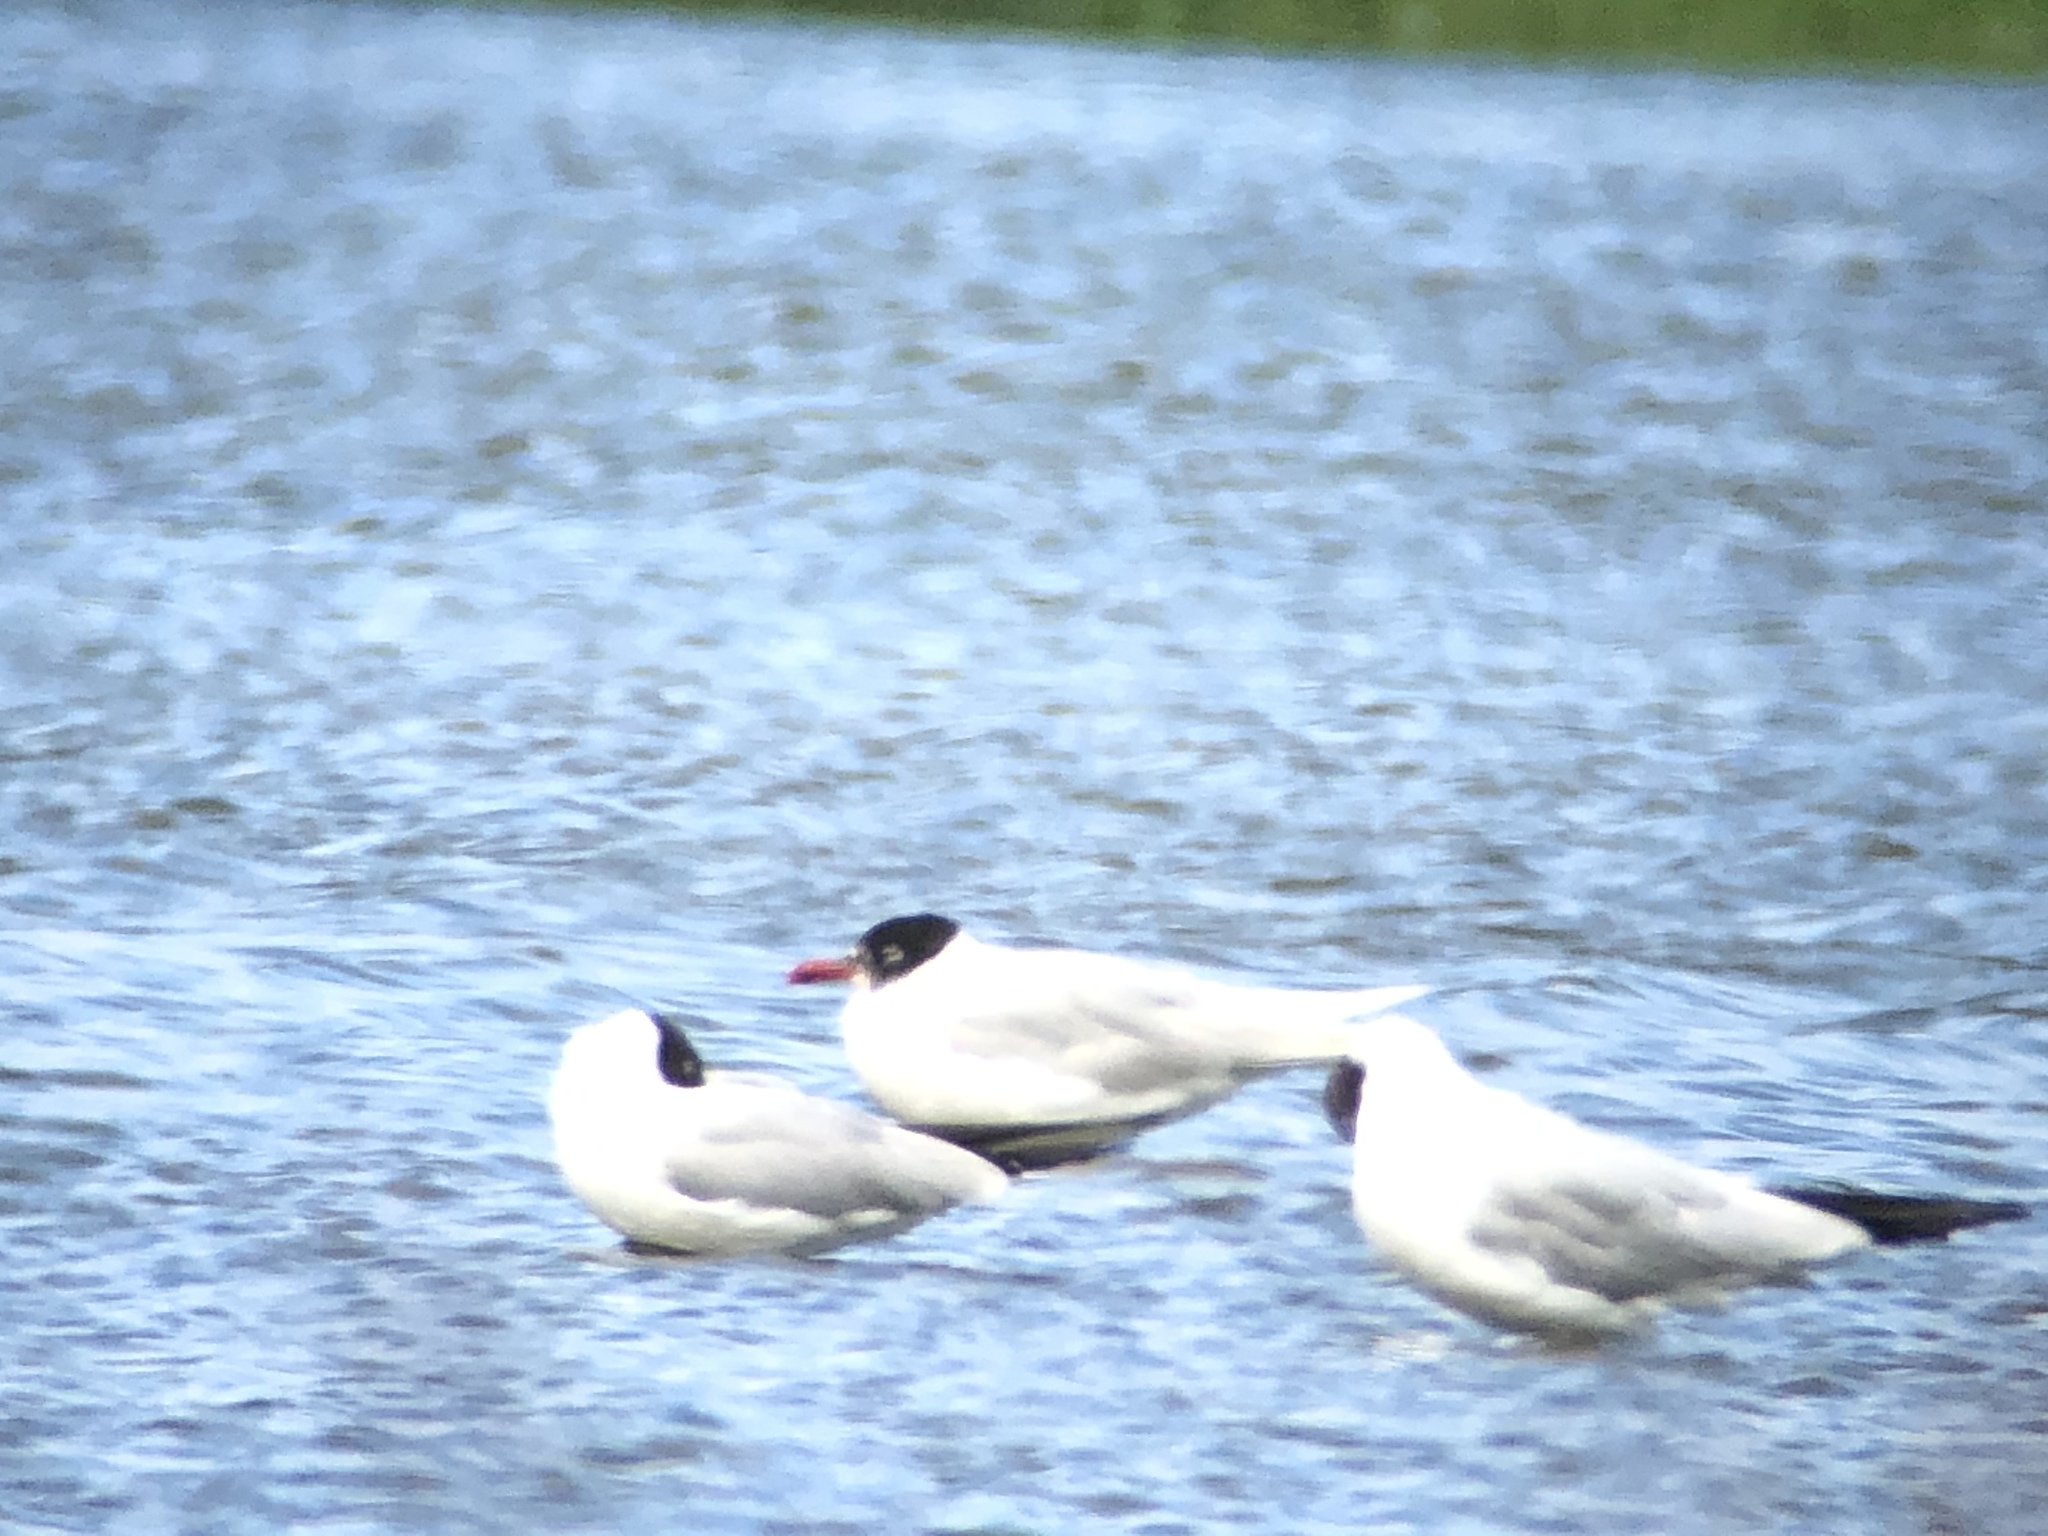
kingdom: Animalia
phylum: Chordata
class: Aves
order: Charadriiformes
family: Laridae
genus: Ichthyaetus
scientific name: Ichthyaetus melanocephalus
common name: Mediterranean gull
